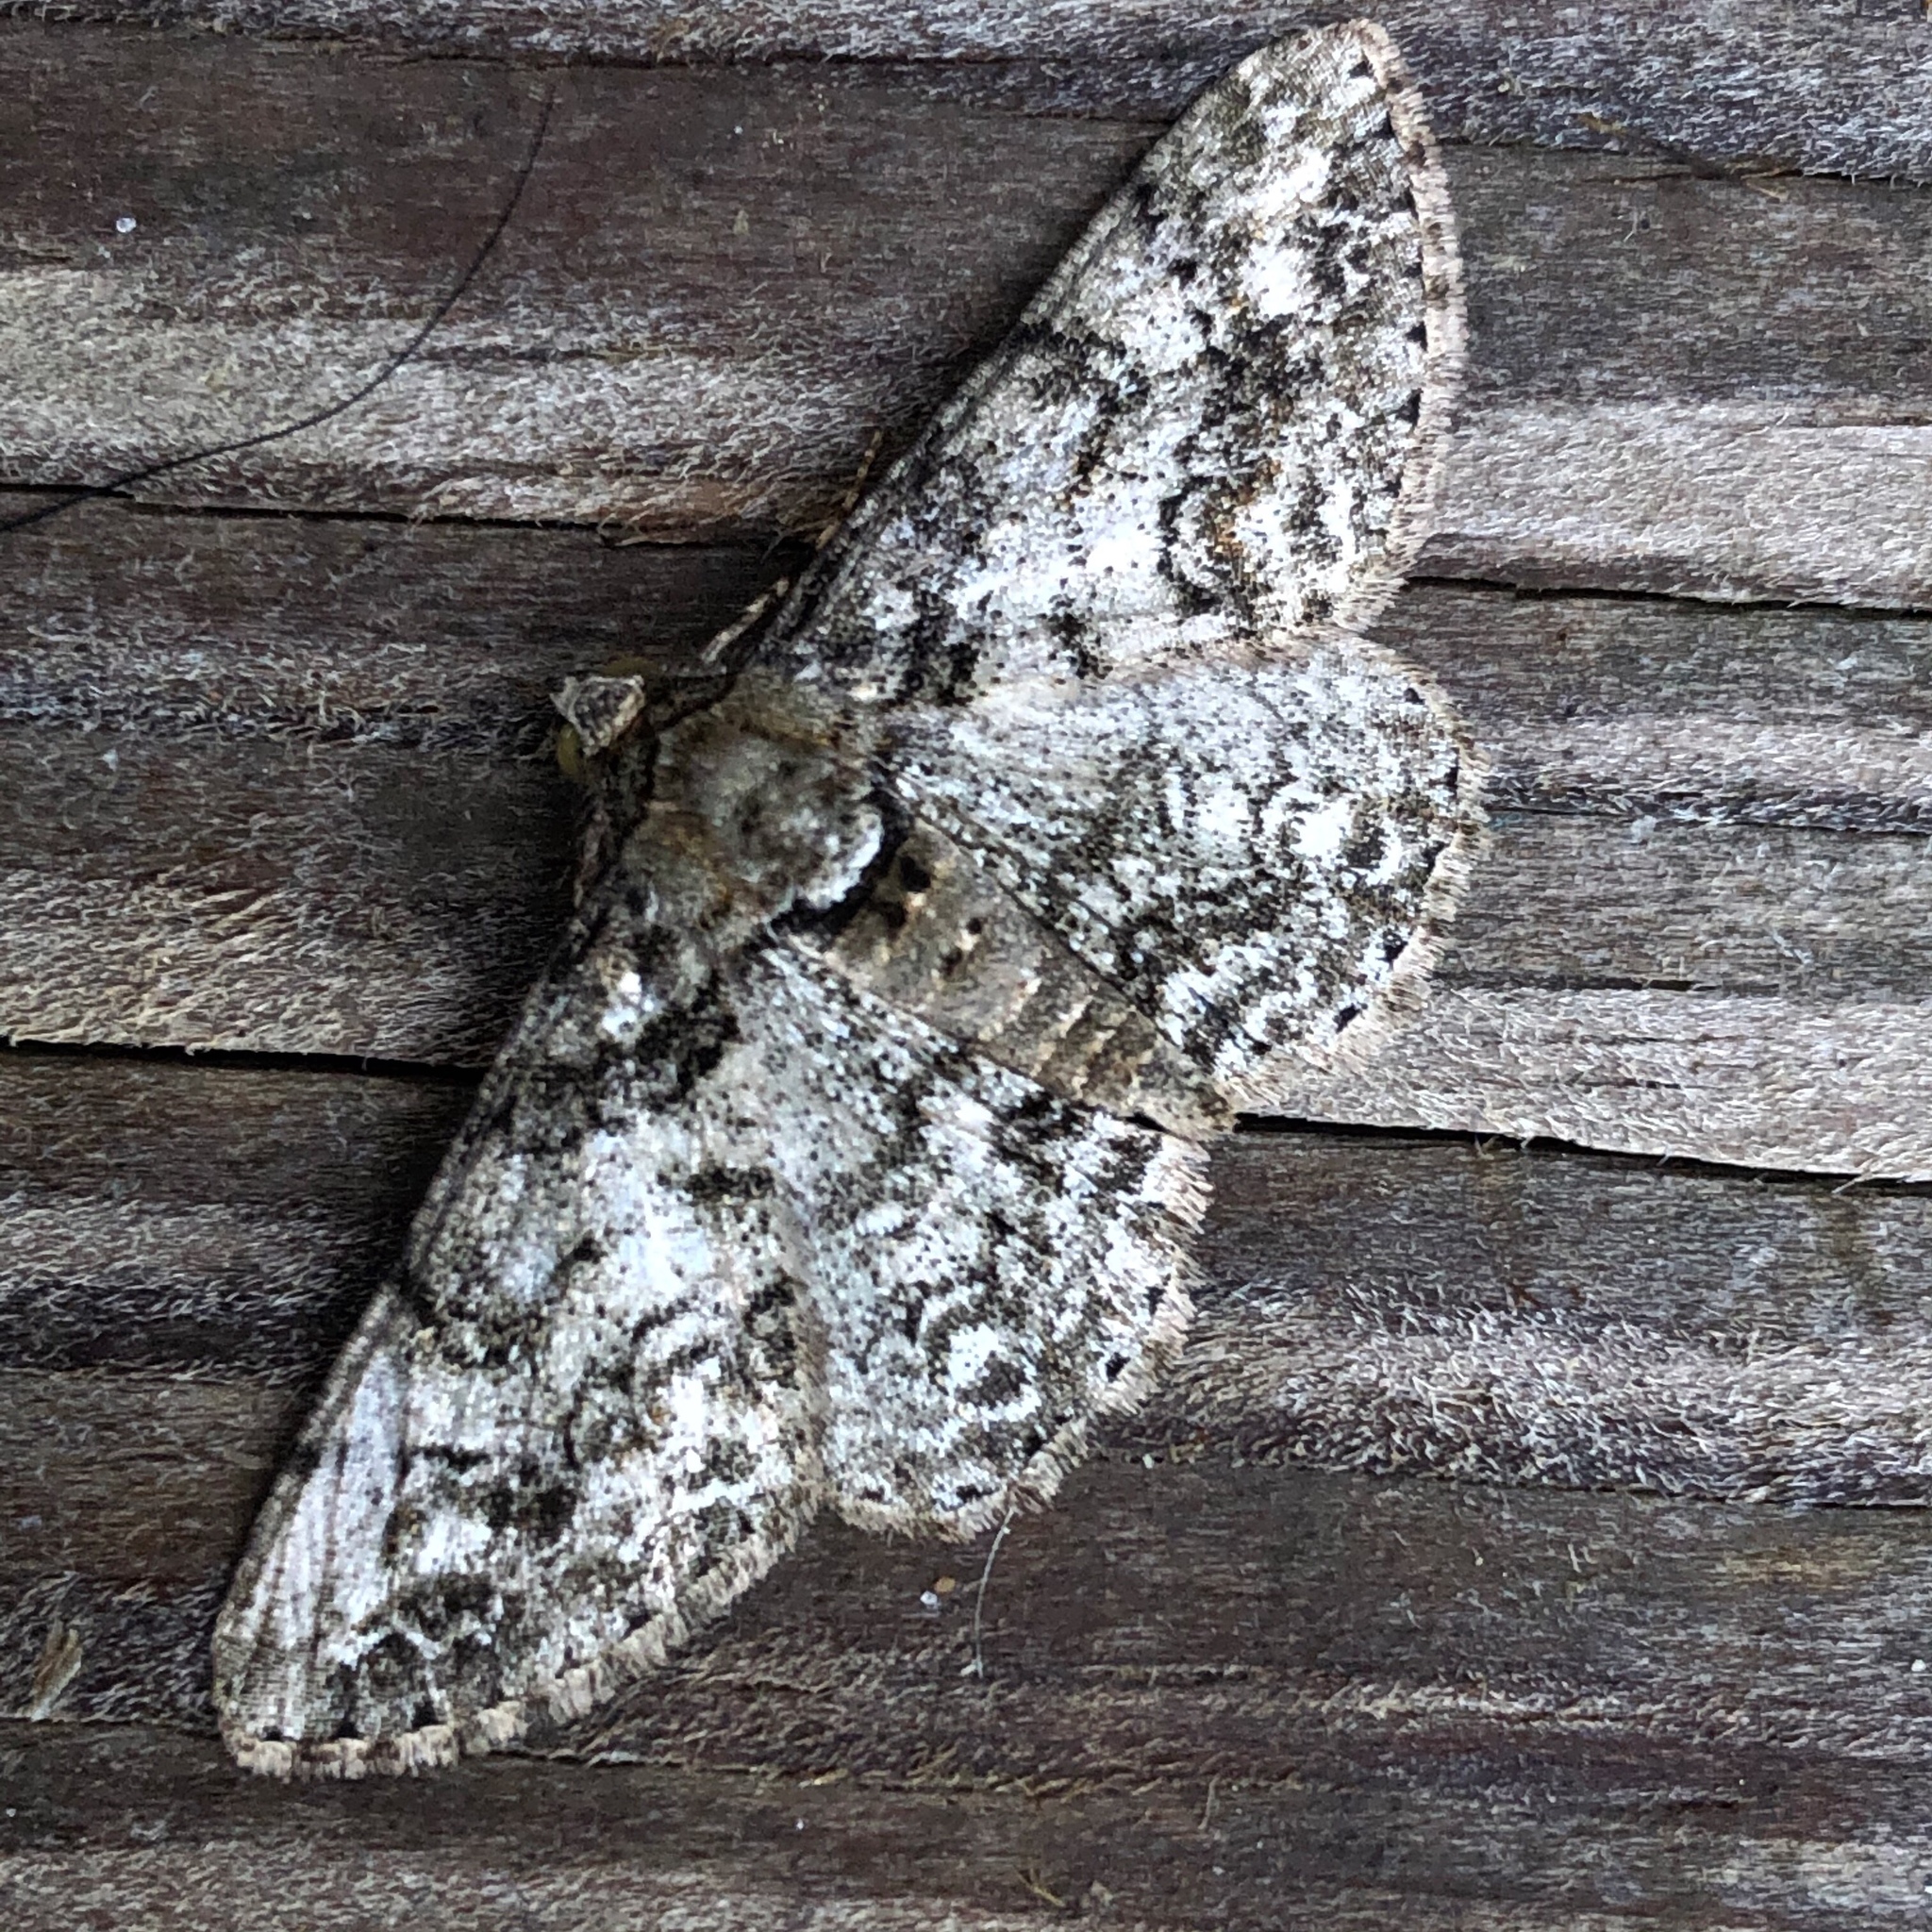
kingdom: Animalia
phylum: Arthropoda
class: Insecta
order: Lepidoptera
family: Geometridae
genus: Cleora
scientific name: Cleora sublunaria
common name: Double-lined gray
